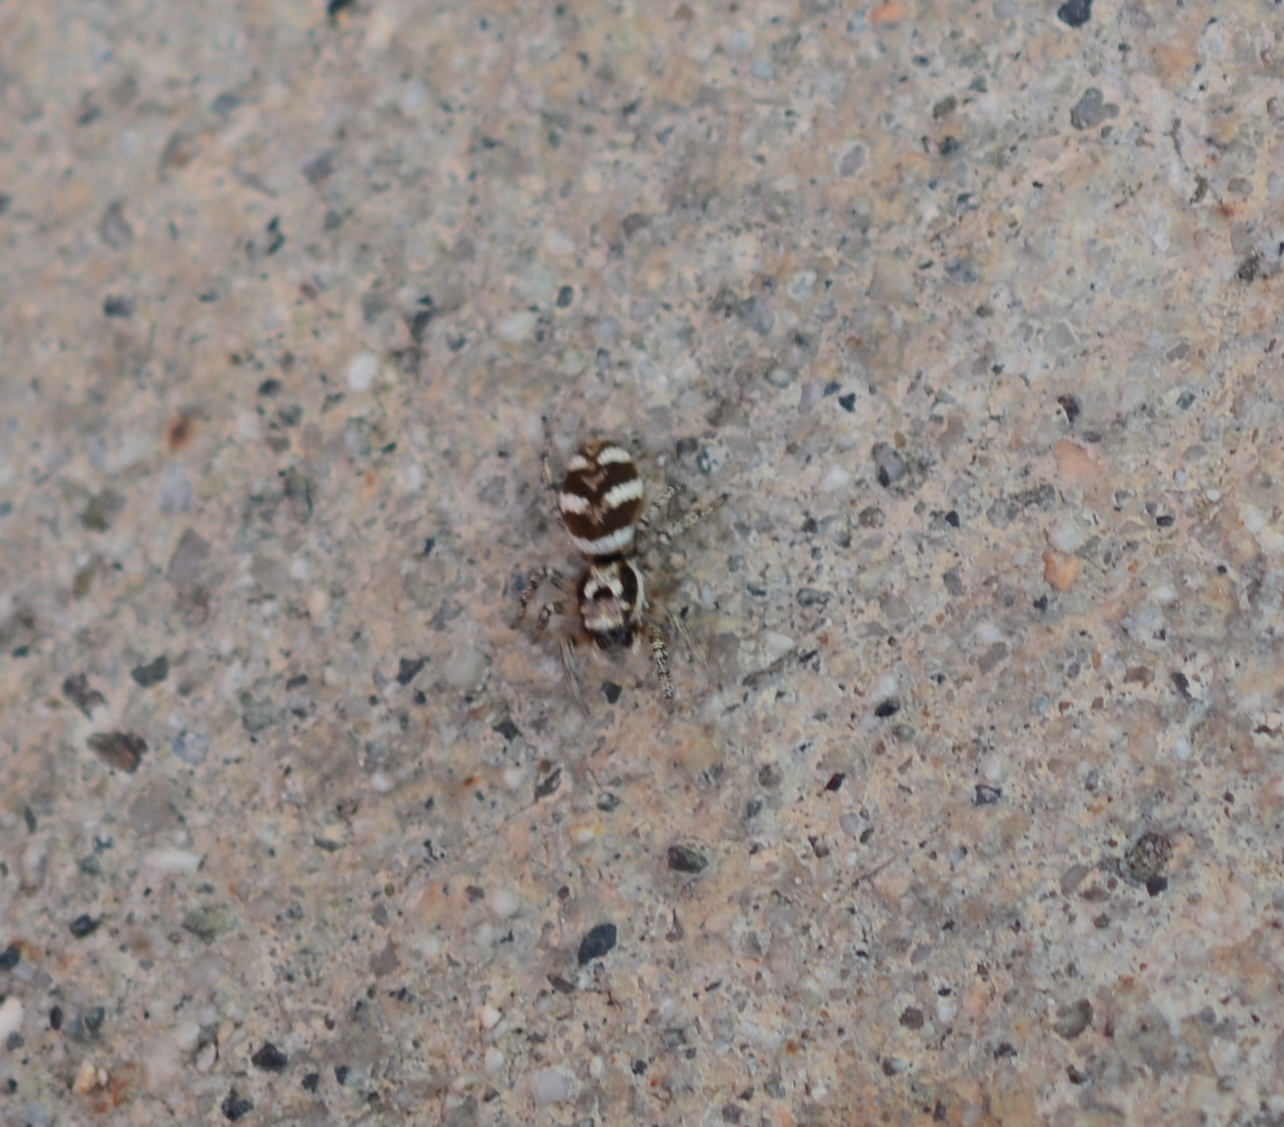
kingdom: Animalia
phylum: Arthropoda
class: Arachnida
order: Araneae
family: Salticidae
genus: Salticus
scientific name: Salticus scenicus
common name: Zebra jumper
